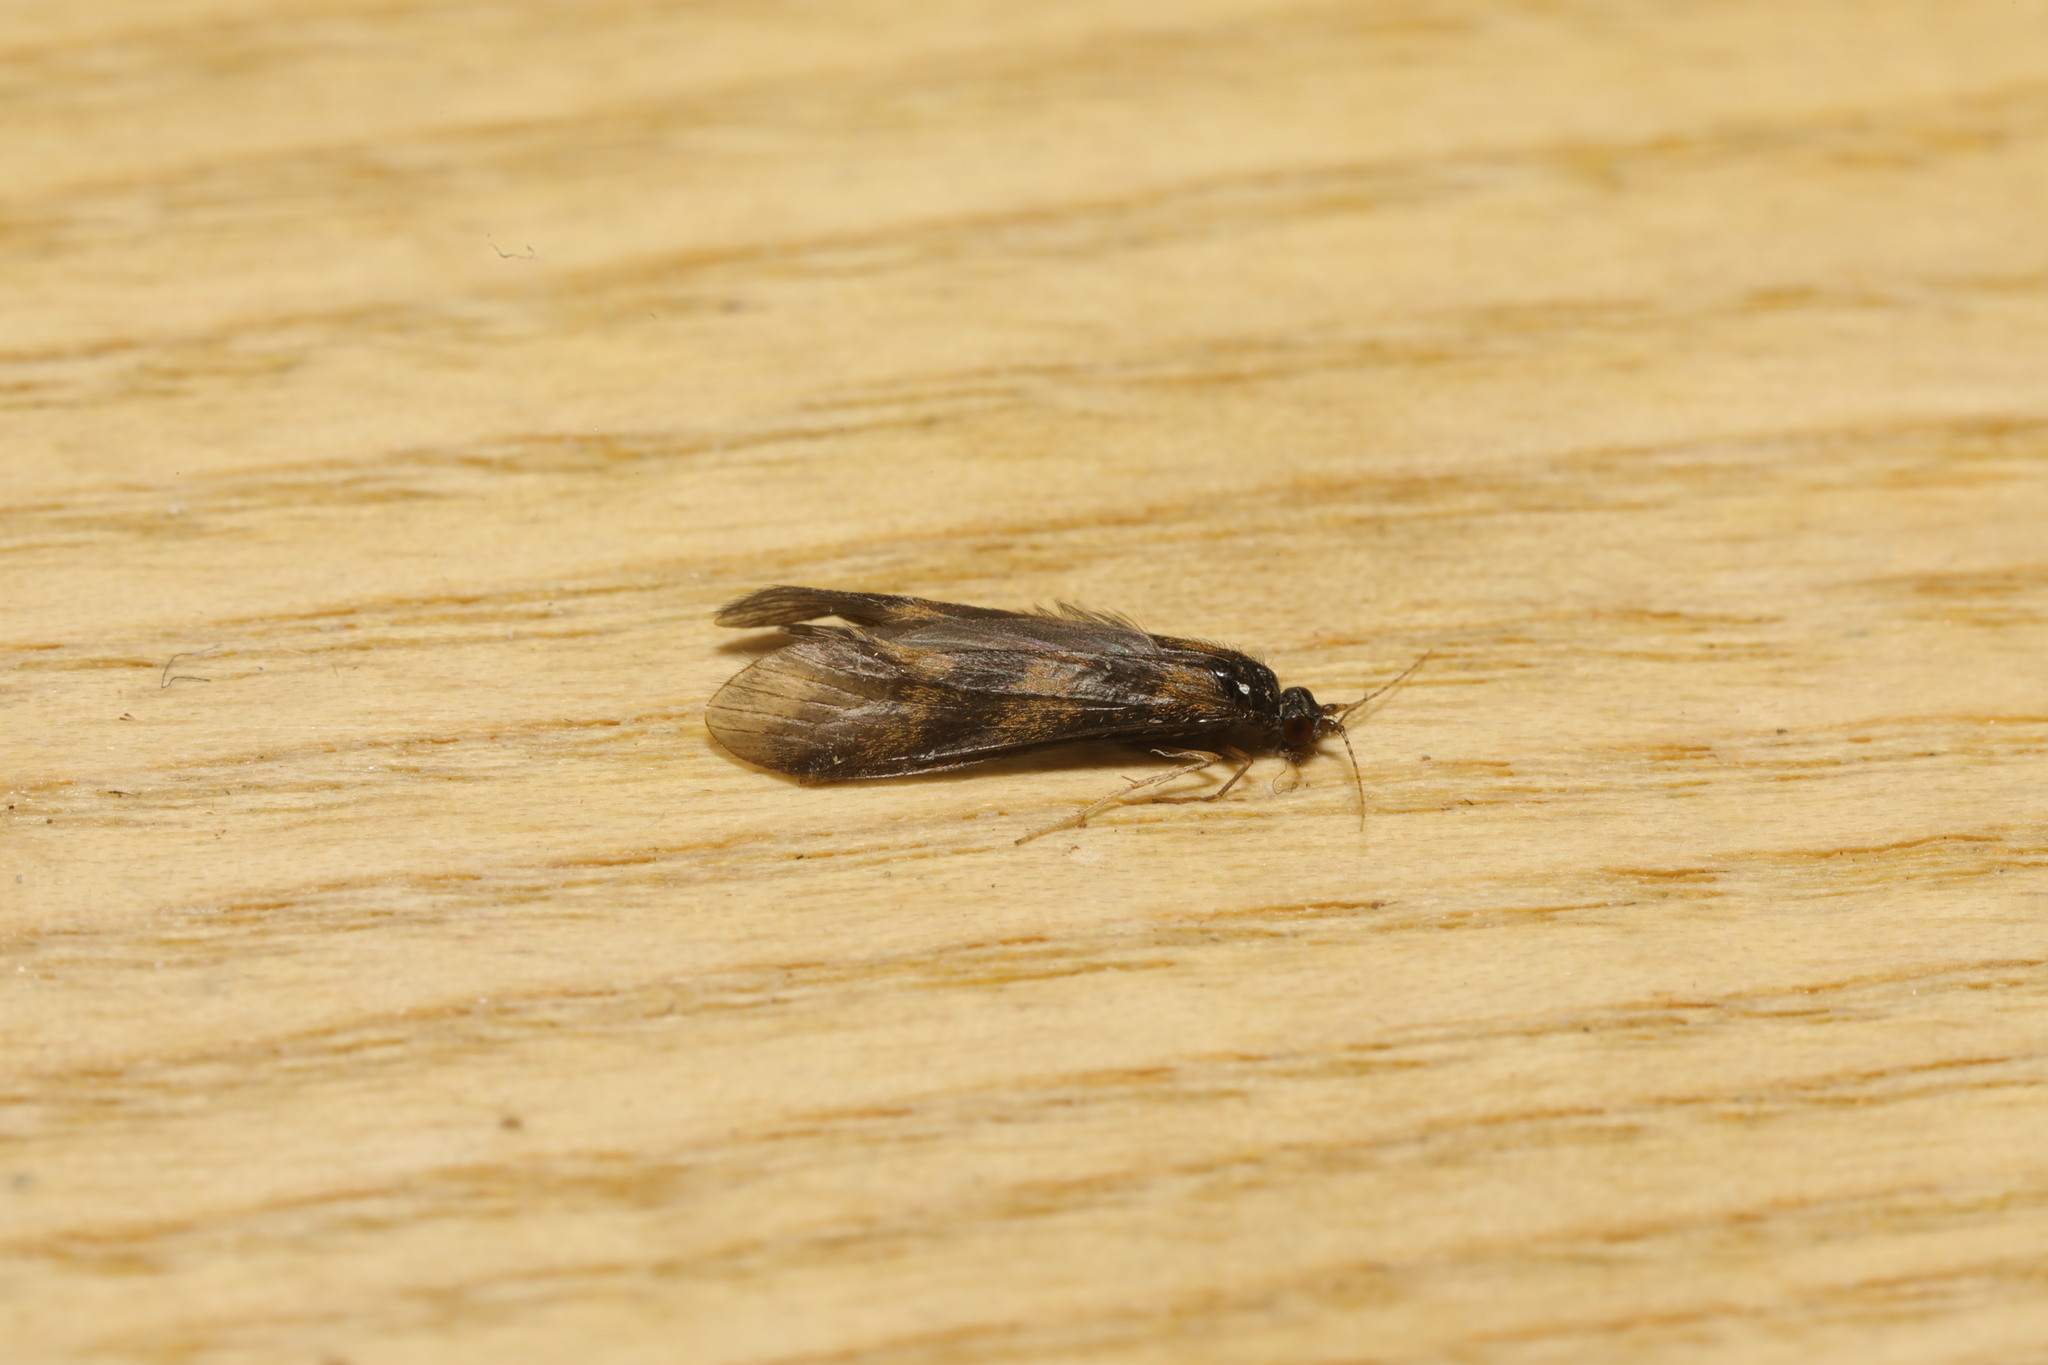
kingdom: Animalia
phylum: Arthropoda
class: Insecta
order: Trichoptera
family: Leptoceridae
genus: Mystacides
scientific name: Mystacides longicornis
